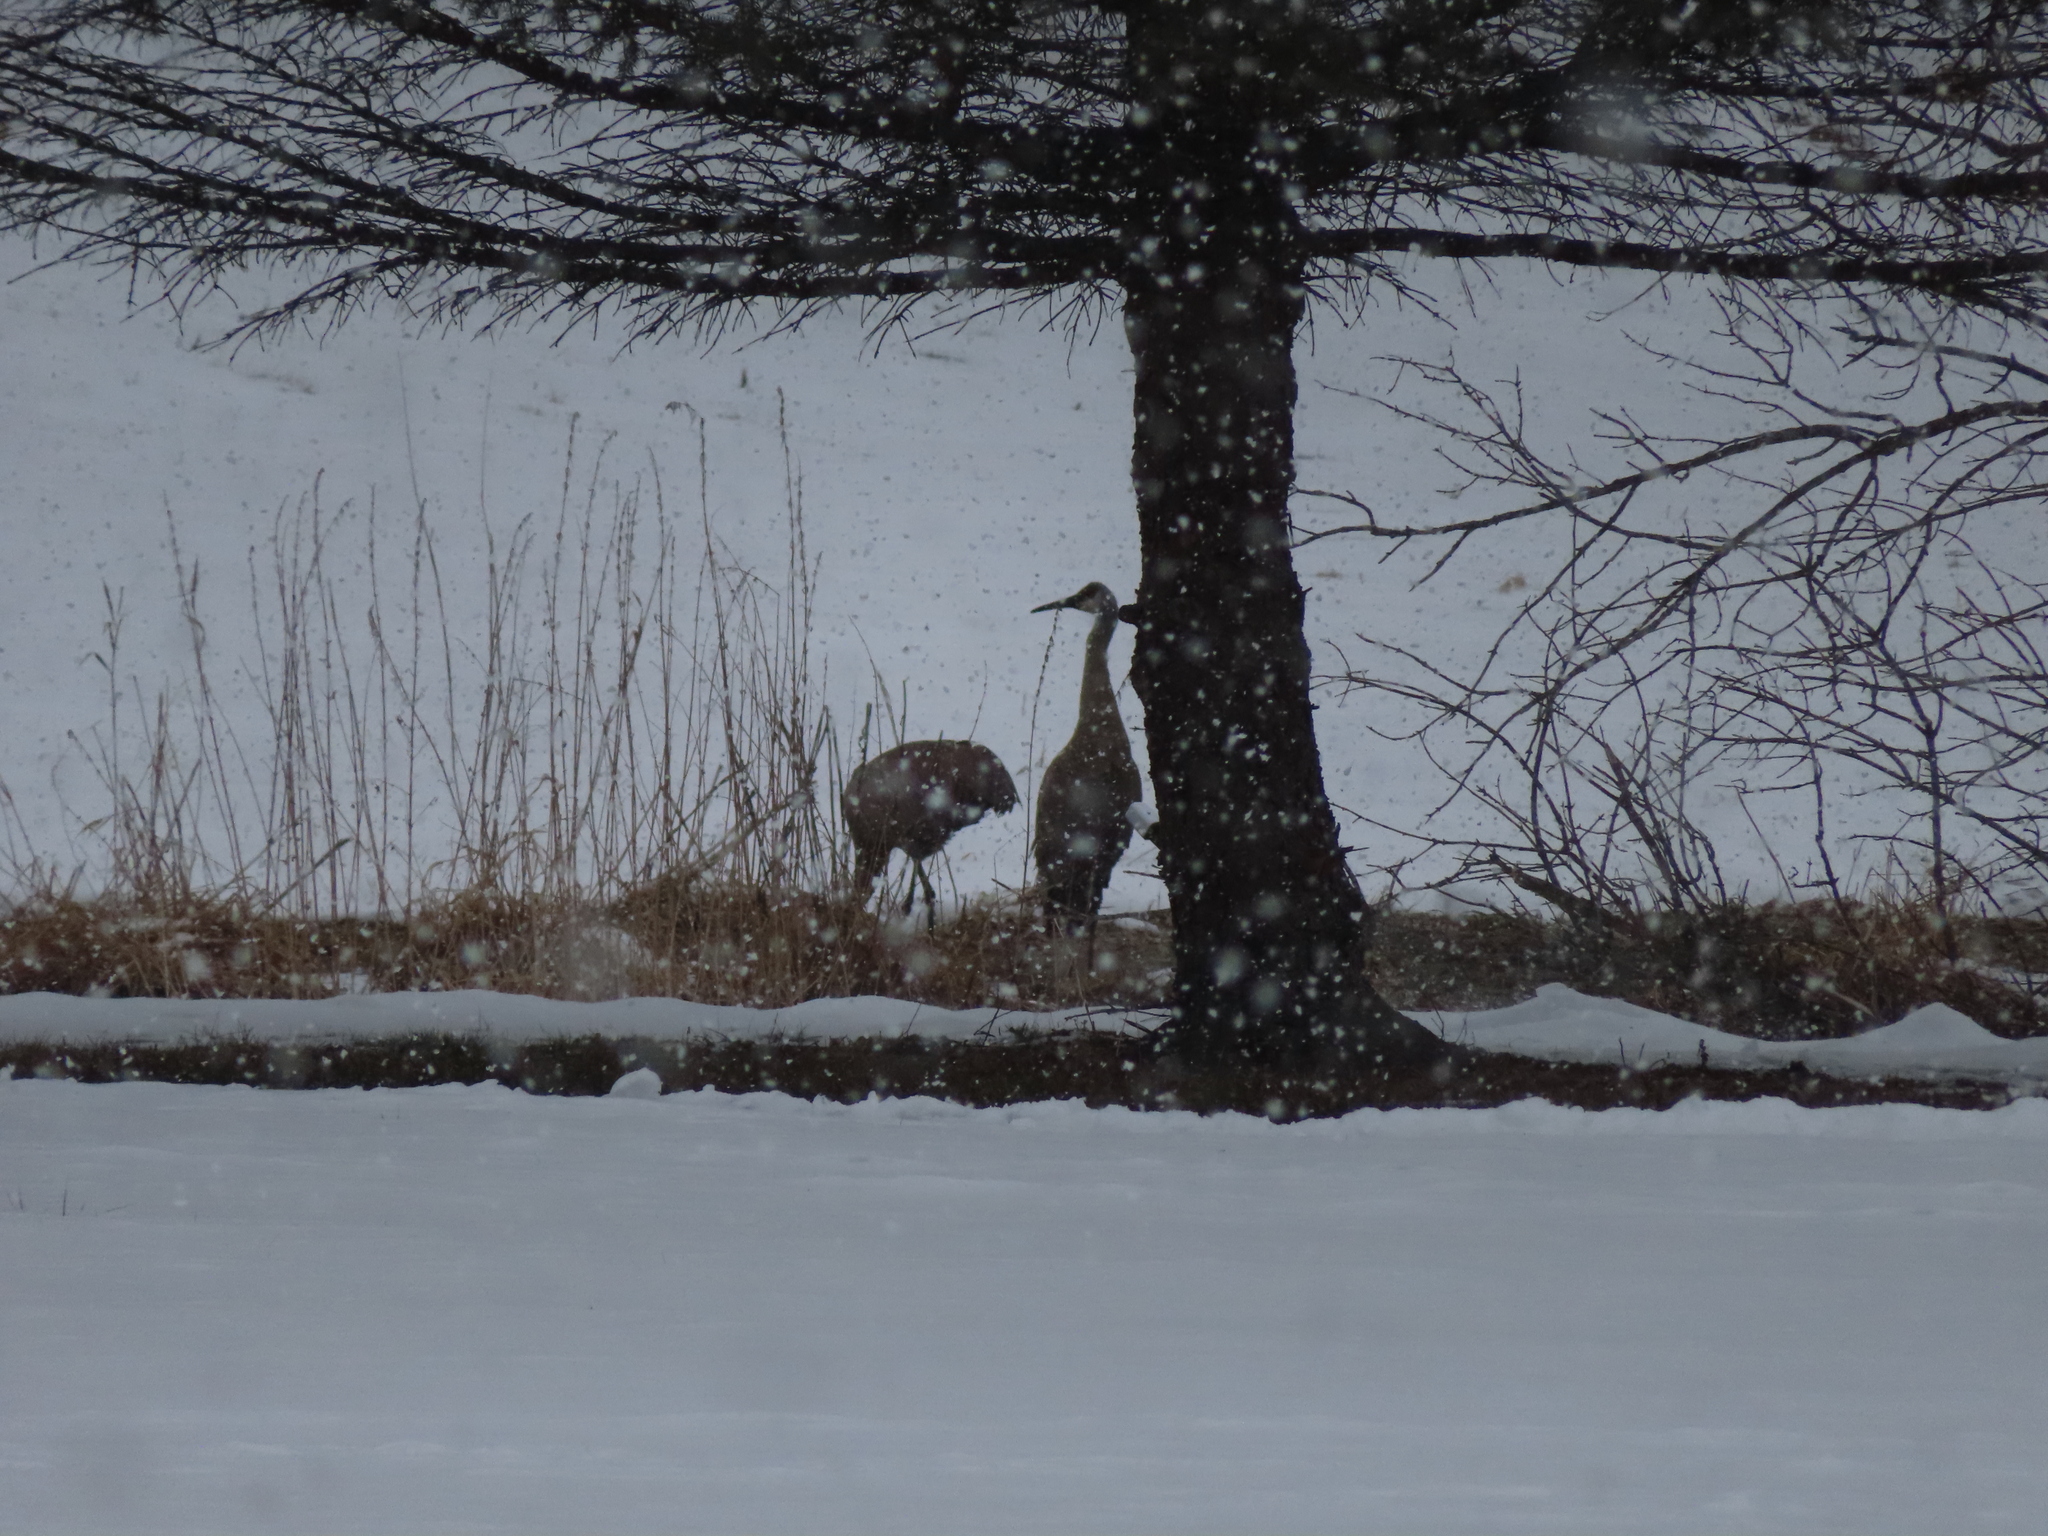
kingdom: Animalia
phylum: Chordata
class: Aves
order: Gruiformes
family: Gruidae
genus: Grus
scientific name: Grus canadensis
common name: Sandhill crane
